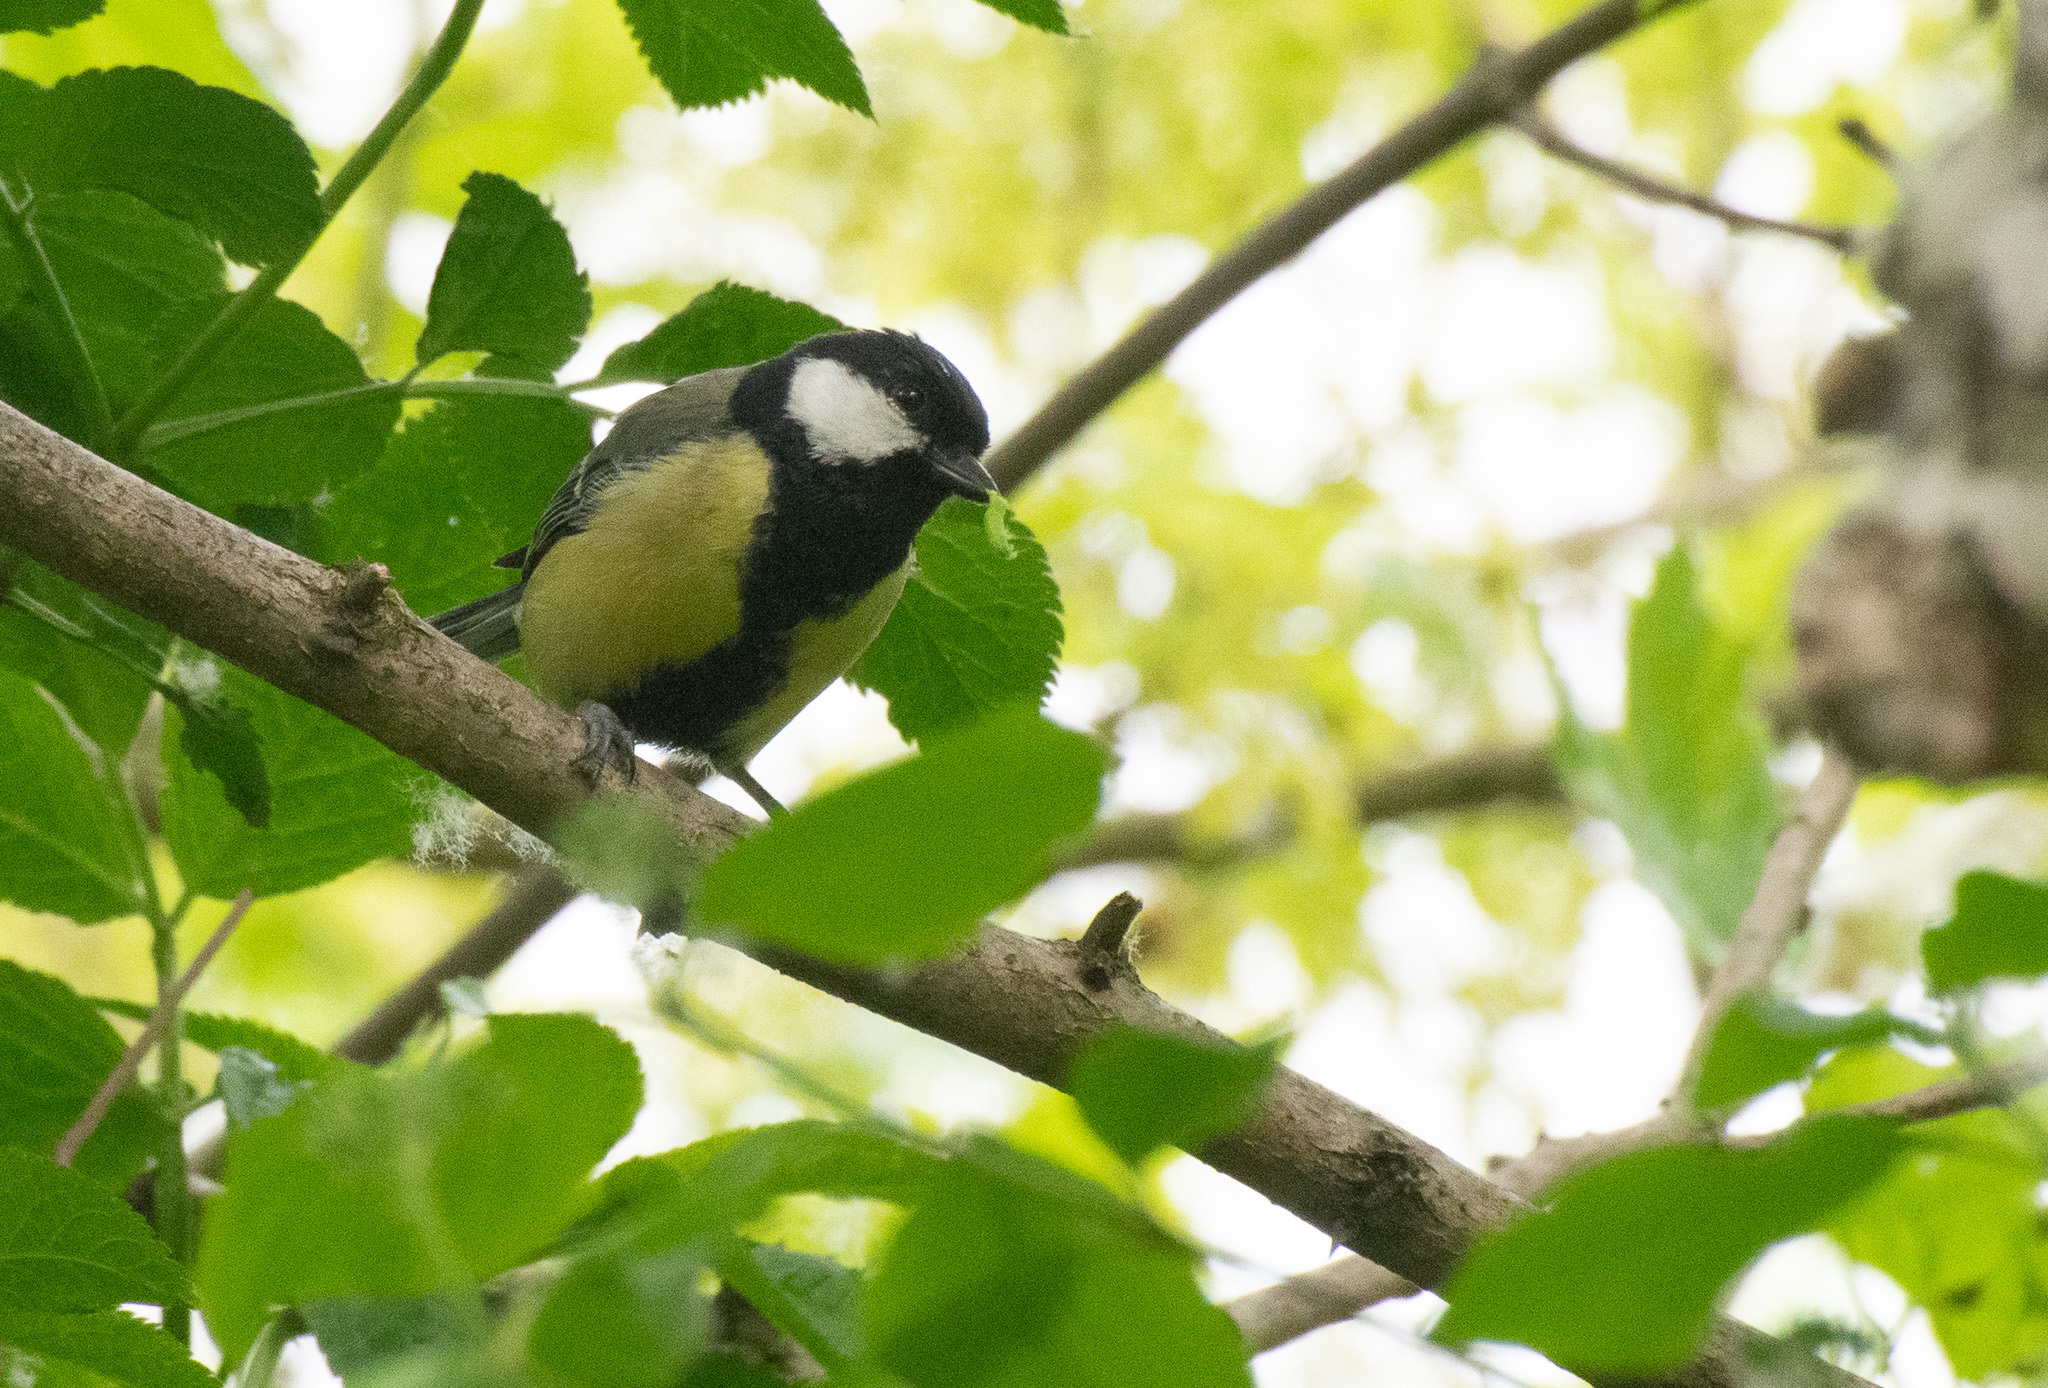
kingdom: Animalia
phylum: Chordata
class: Aves
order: Passeriformes
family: Paridae
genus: Parus
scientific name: Parus major
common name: Great tit
